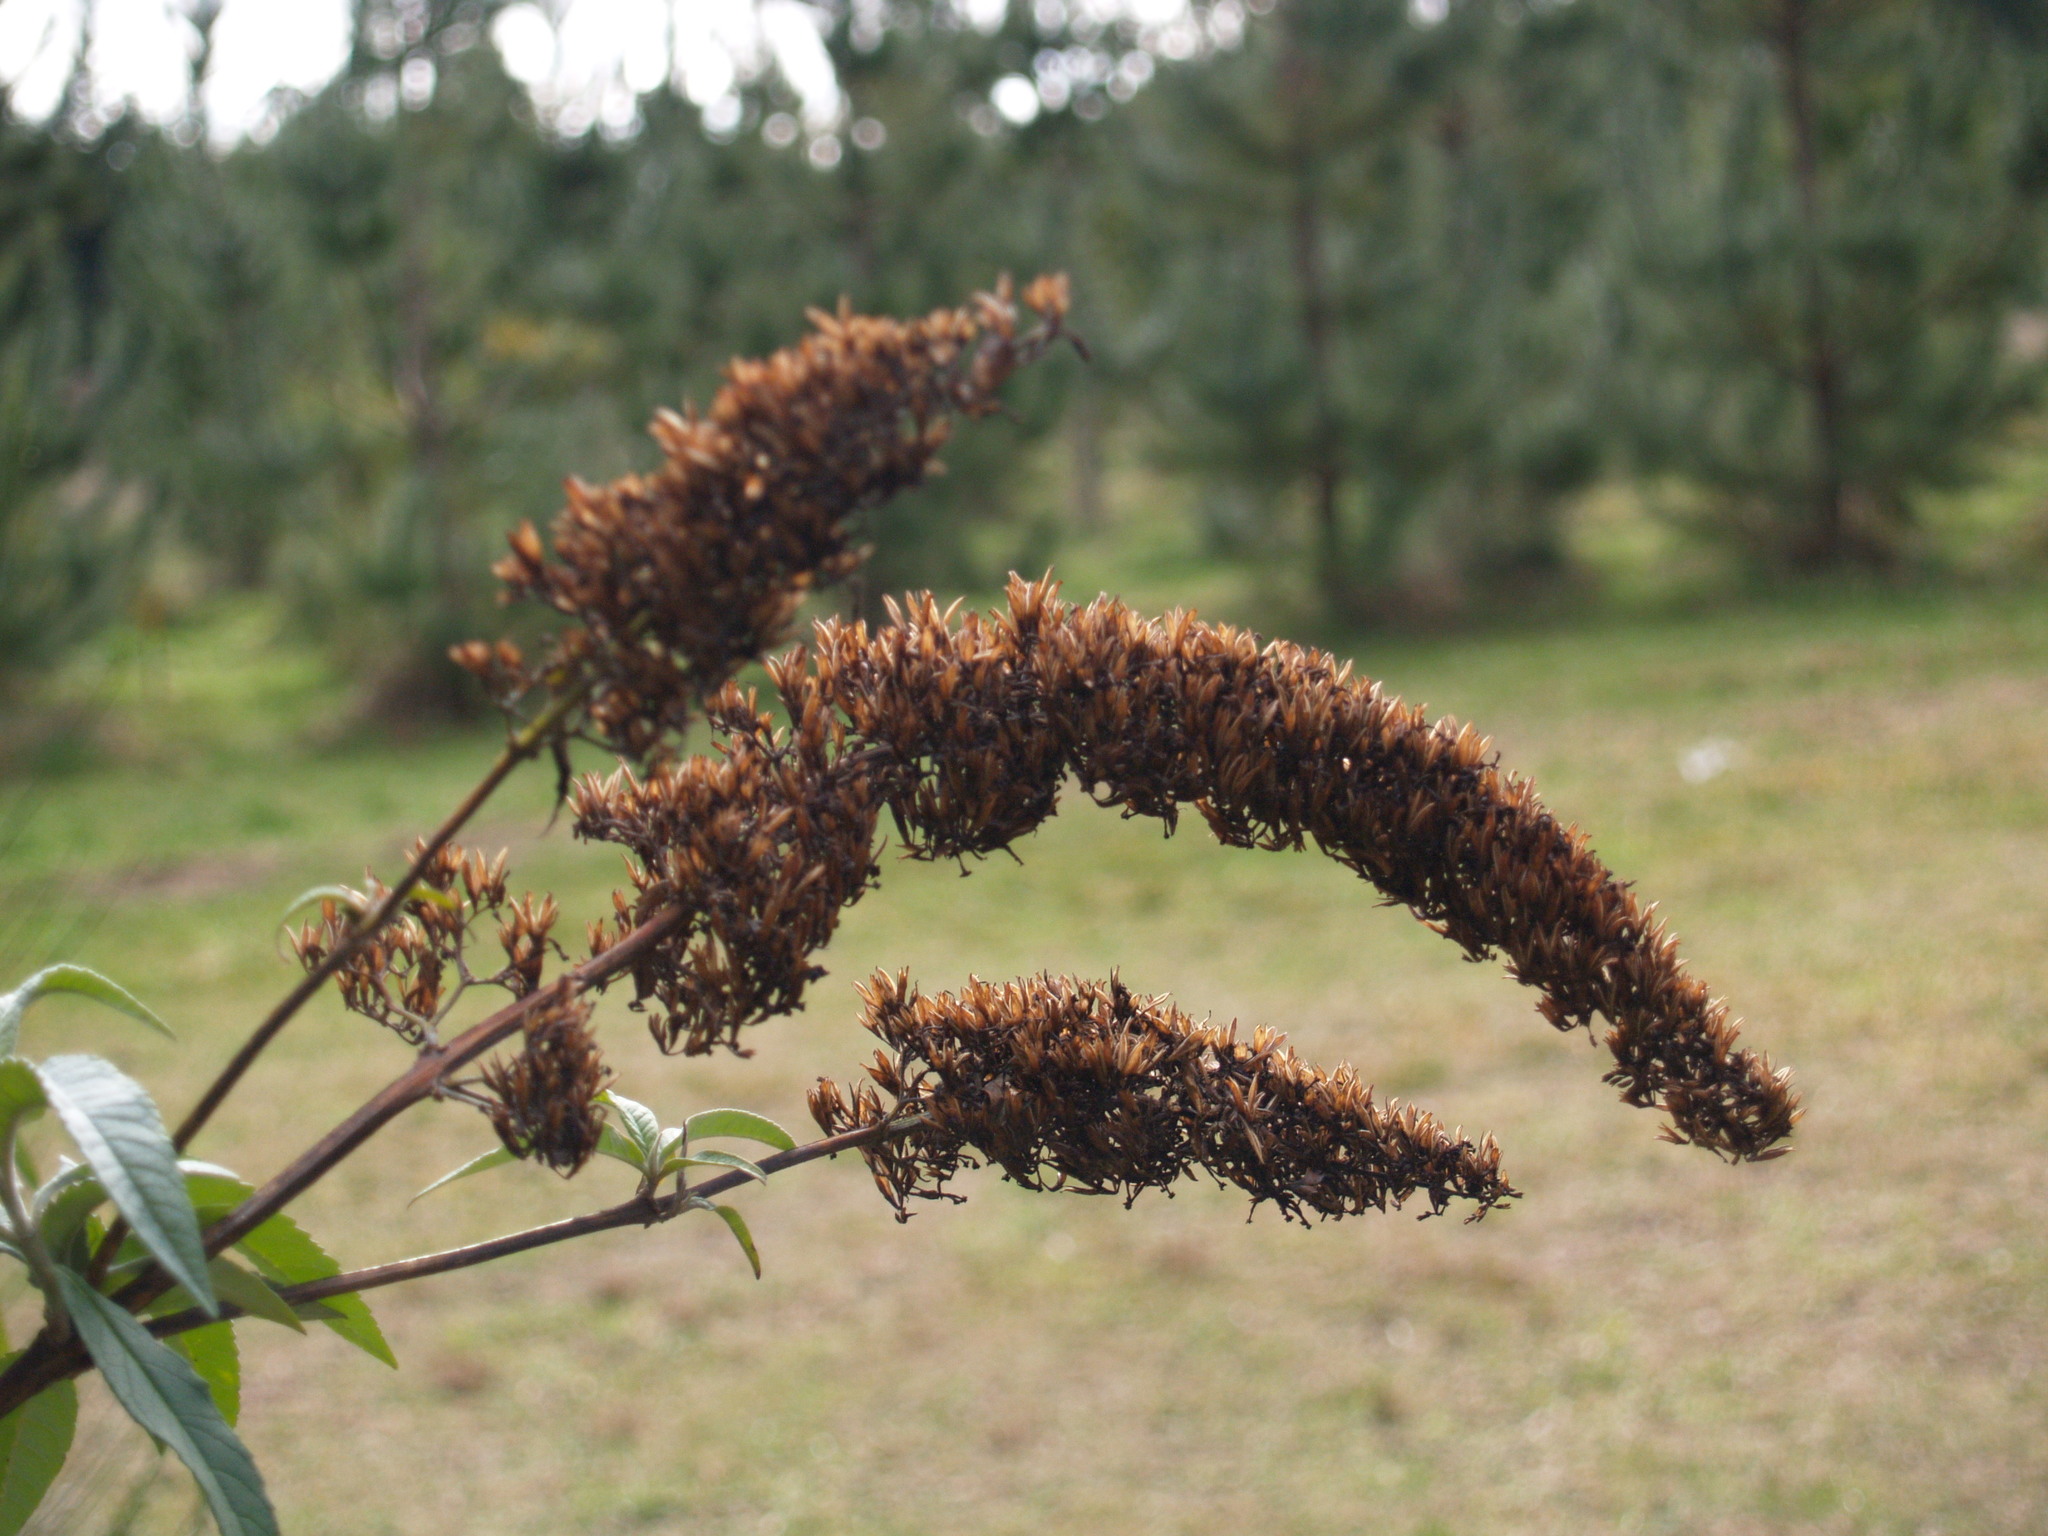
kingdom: Plantae
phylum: Tracheophyta
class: Magnoliopsida
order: Lamiales
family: Scrophulariaceae
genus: Buddleja
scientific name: Buddleja davidii
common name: Butterfly-bush
